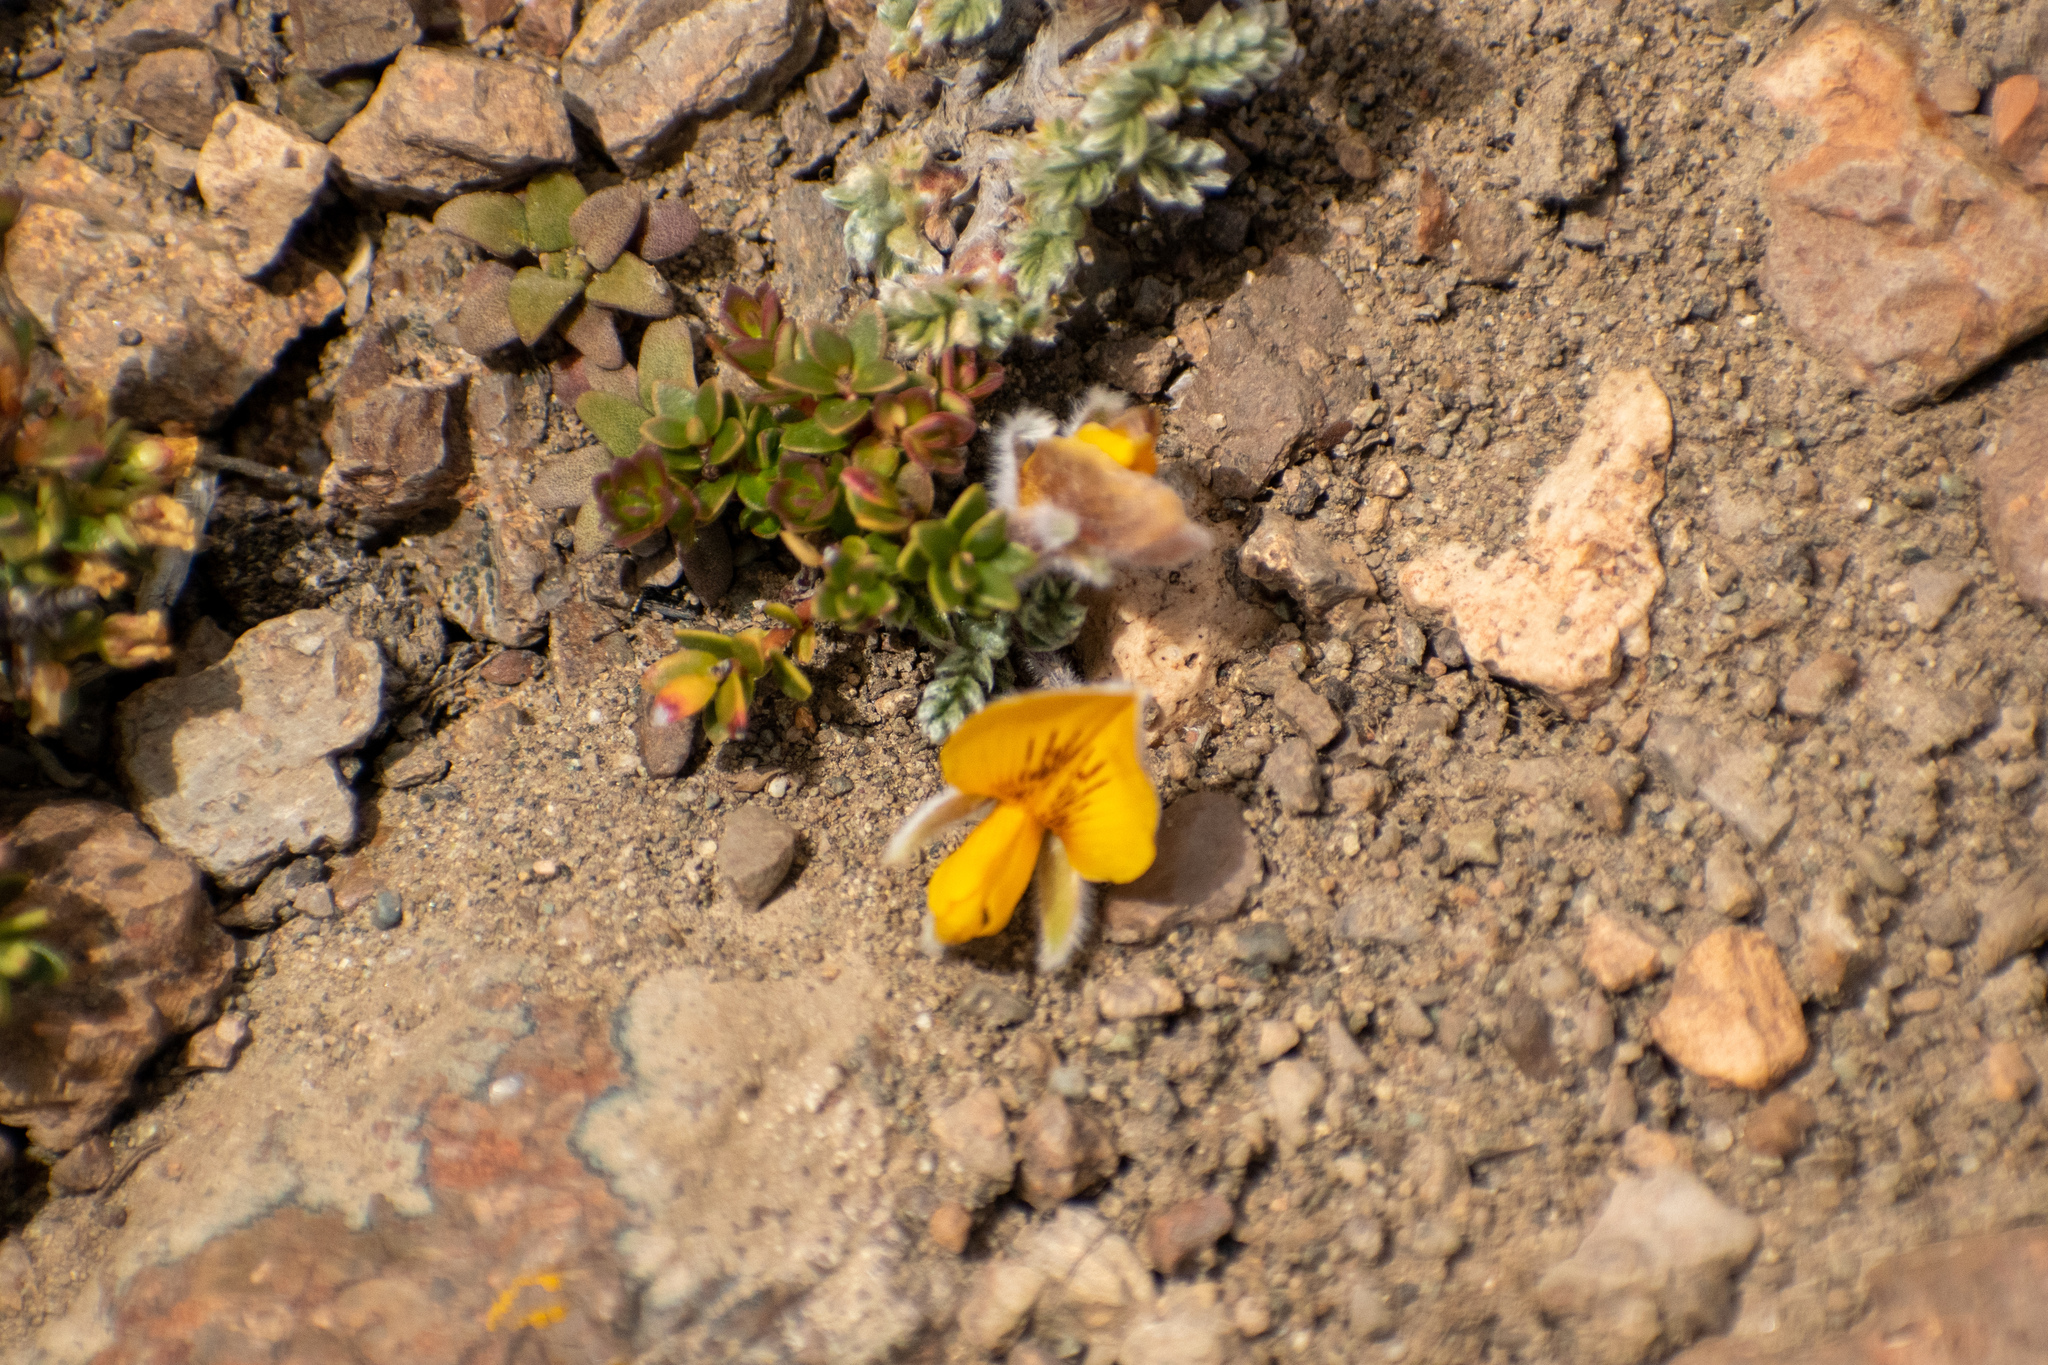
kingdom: Plantae
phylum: Tracheophyta
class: Magnoliopsida
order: Fabales
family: Fabaceae
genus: Adesmia
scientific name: Adesmia villosa
